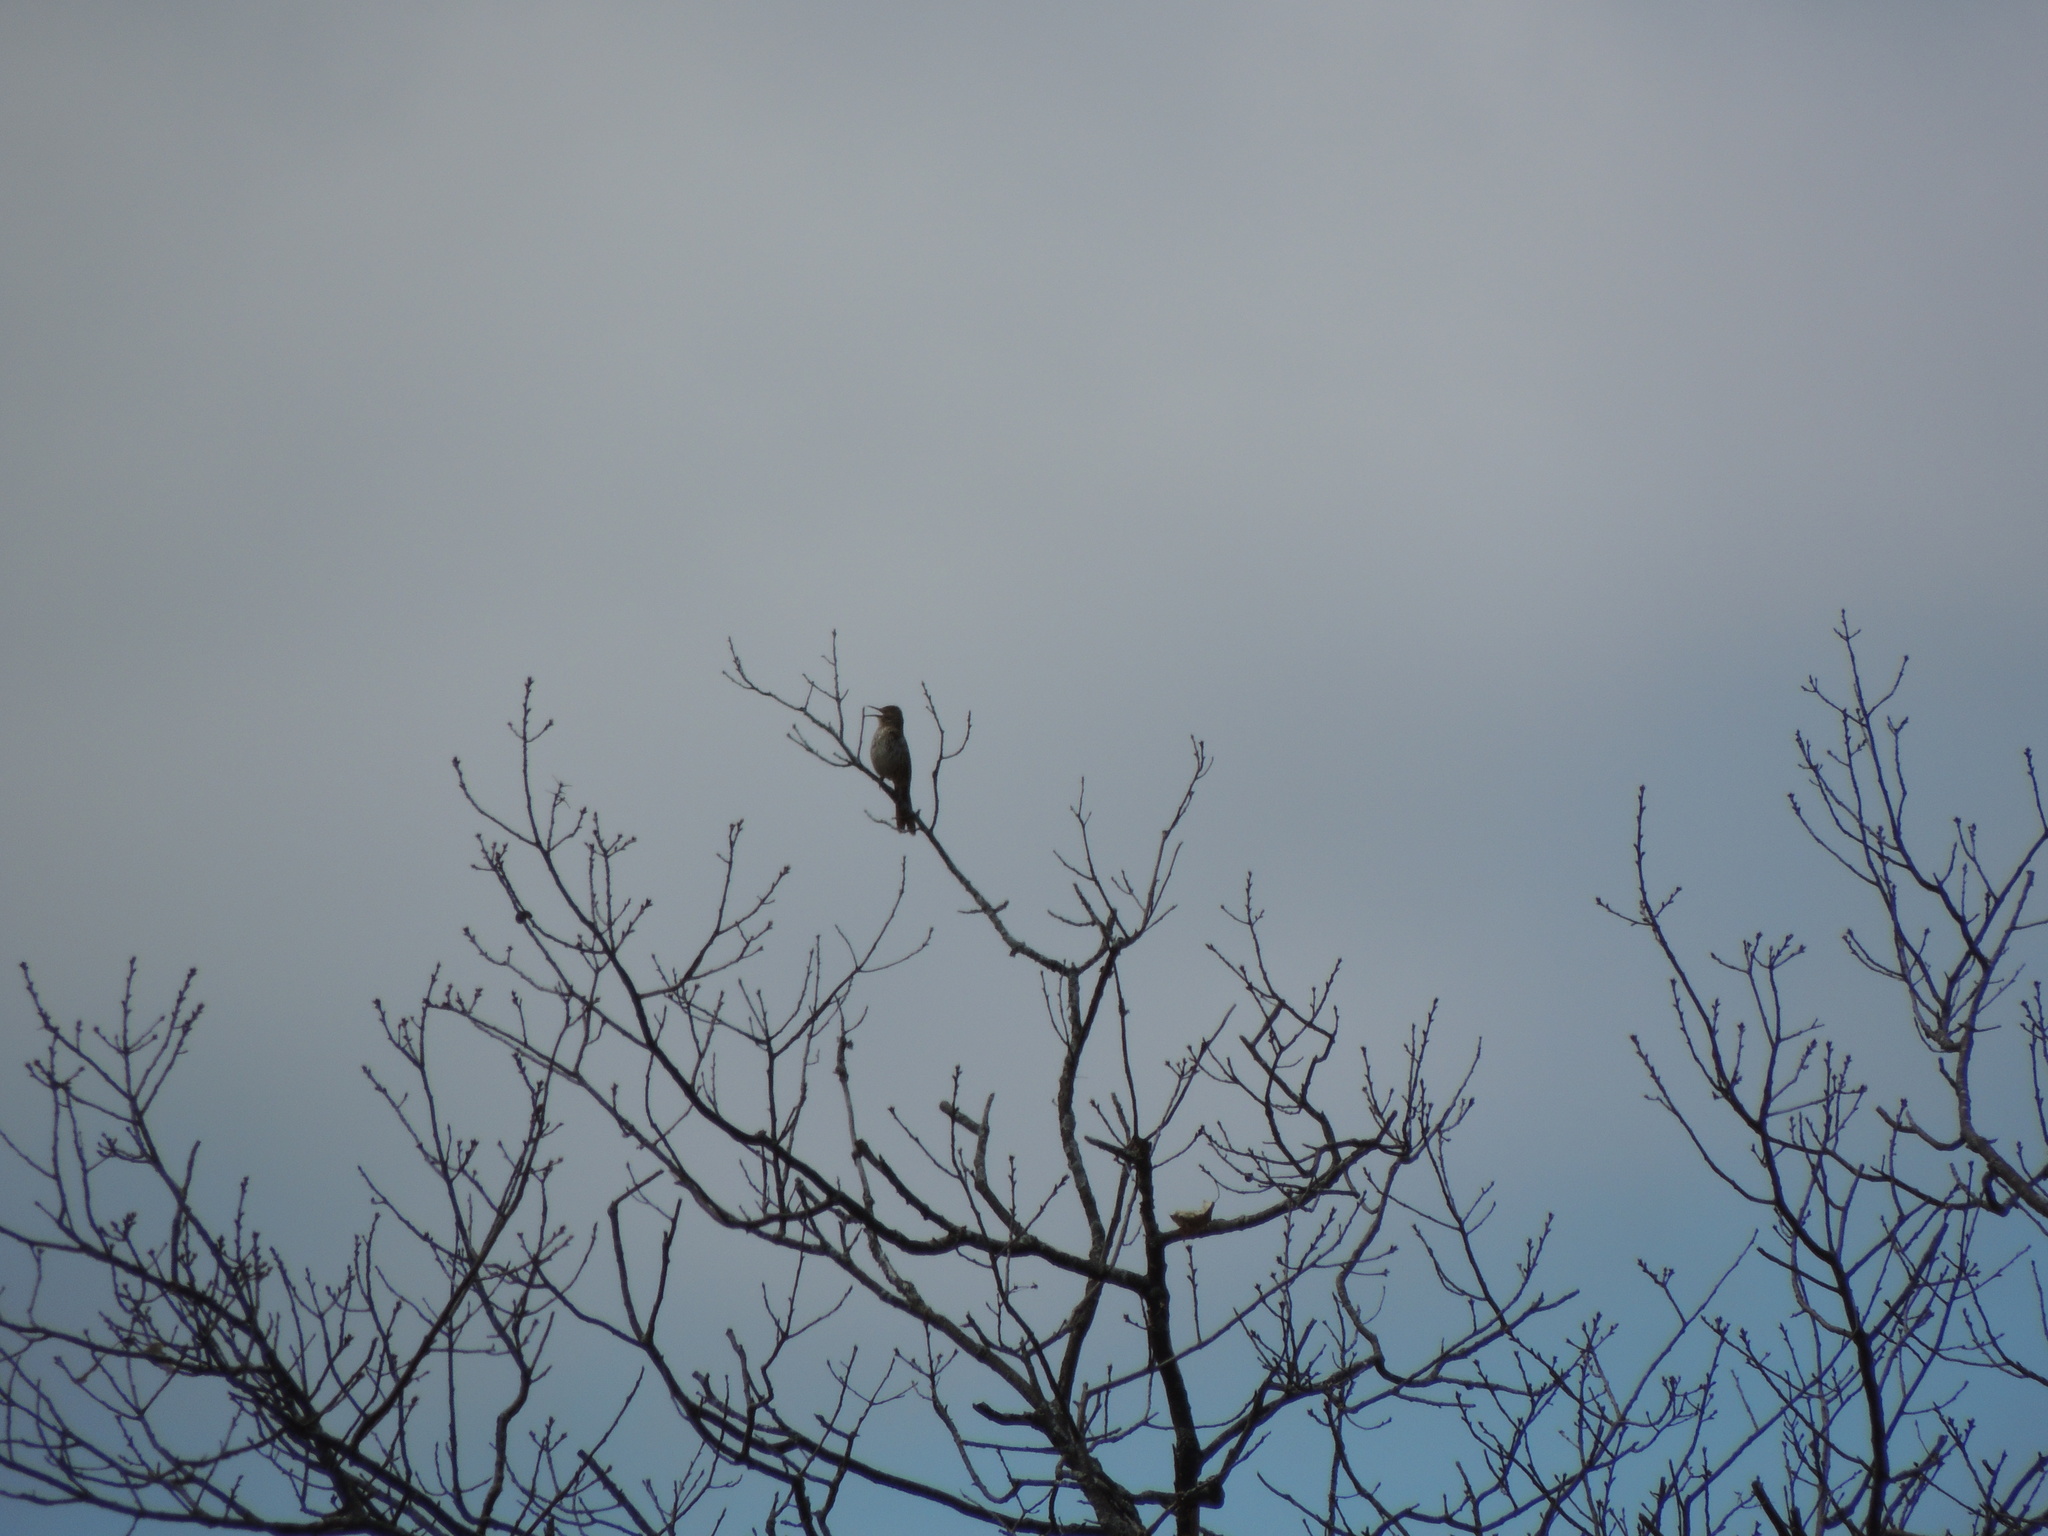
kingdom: Animalia
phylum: Chordata
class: Aves
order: Piciformes
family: Picidae
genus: Colaptes
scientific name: Colaptes auratus
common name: Northern flicker
